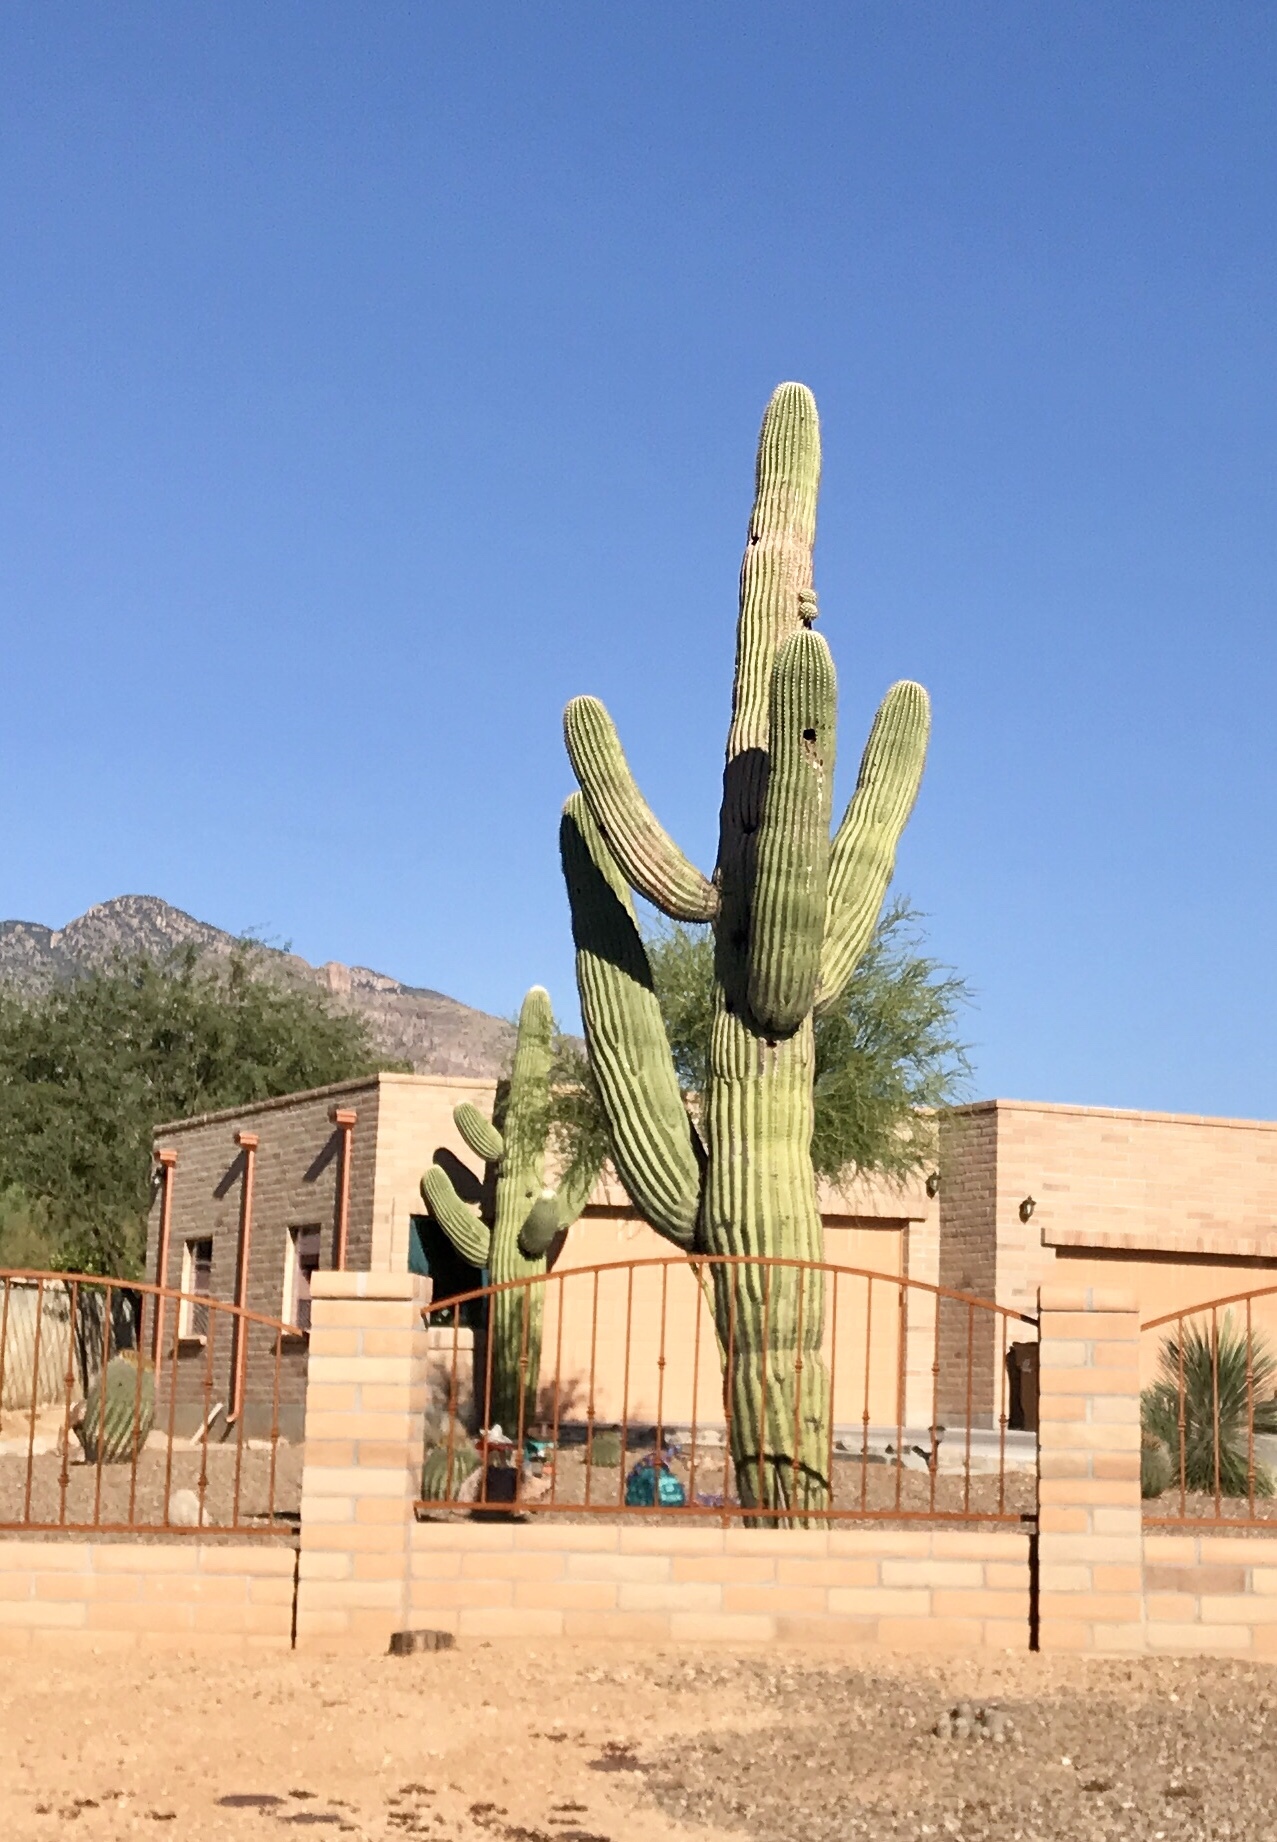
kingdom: Plantae
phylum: Tracheophyta
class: Magnoliopsida
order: Caryophyllales
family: Cactaceae
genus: Carnegiea
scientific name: Carnegiea gigantea
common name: Saguaro
